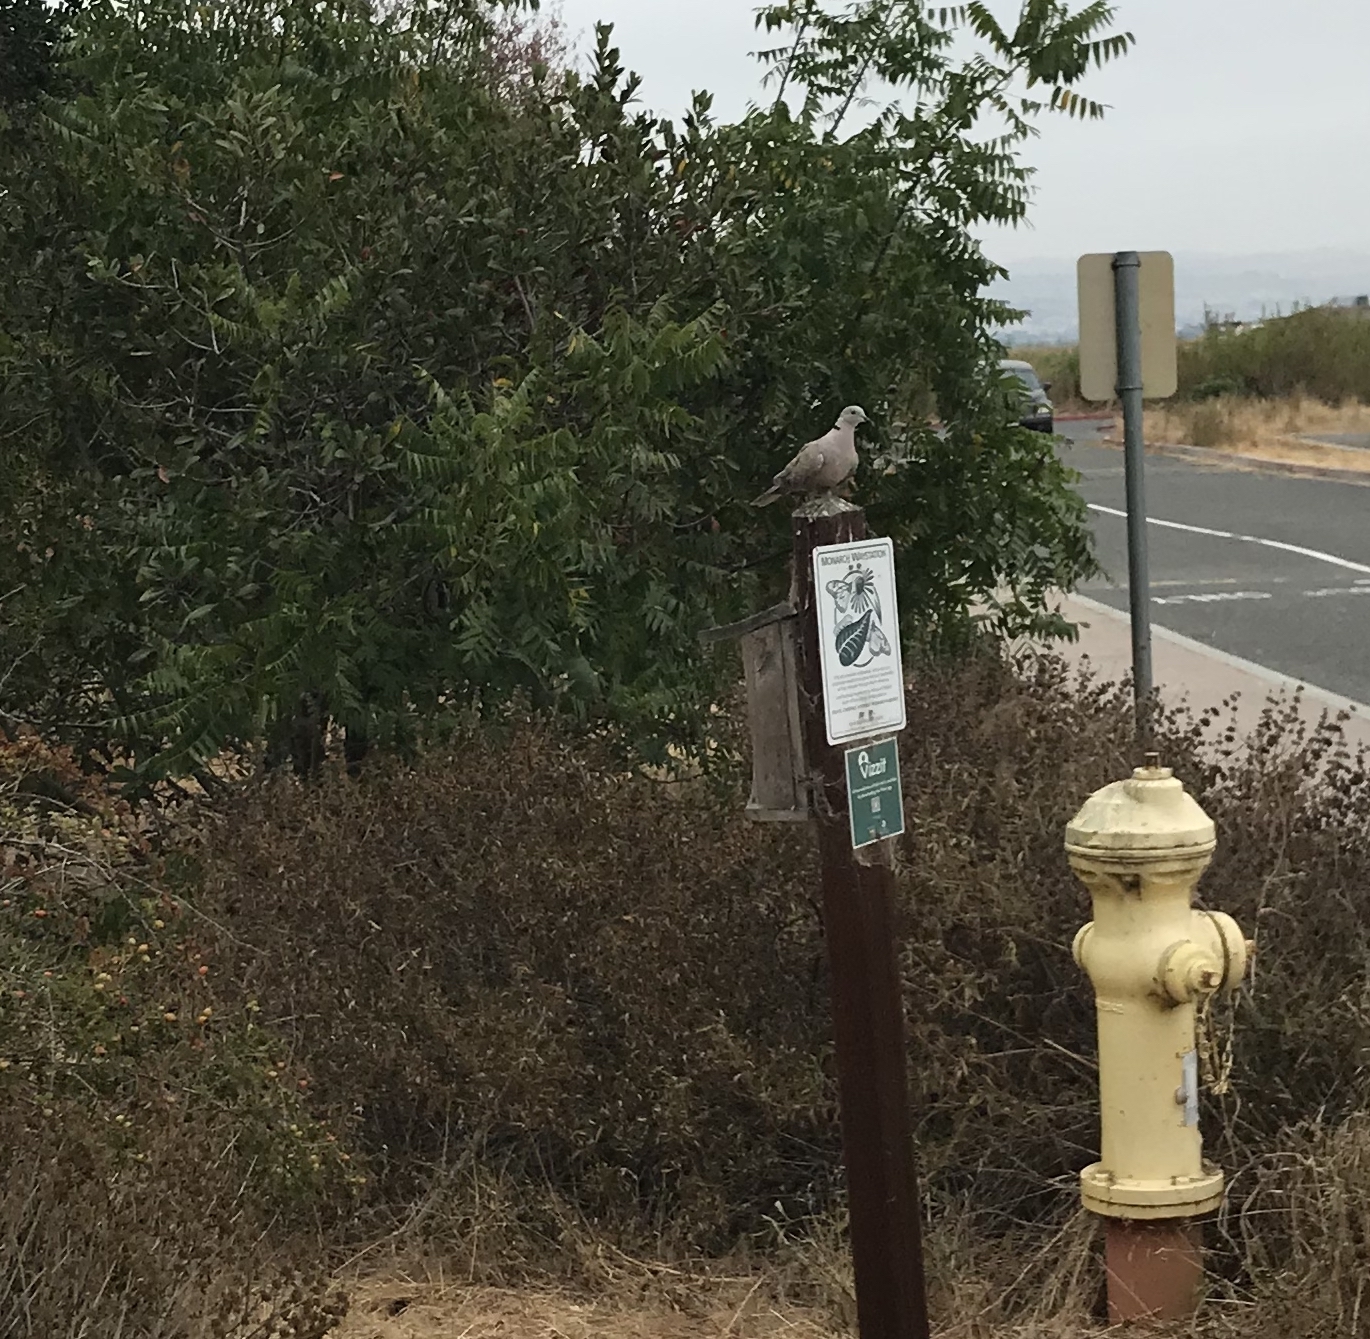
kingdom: Animalia
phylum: Chordata
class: Aves
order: Columbiformes
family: Columbidae
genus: Streptopelia
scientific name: Streptopelia decaocto
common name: Eurasian collared dove
